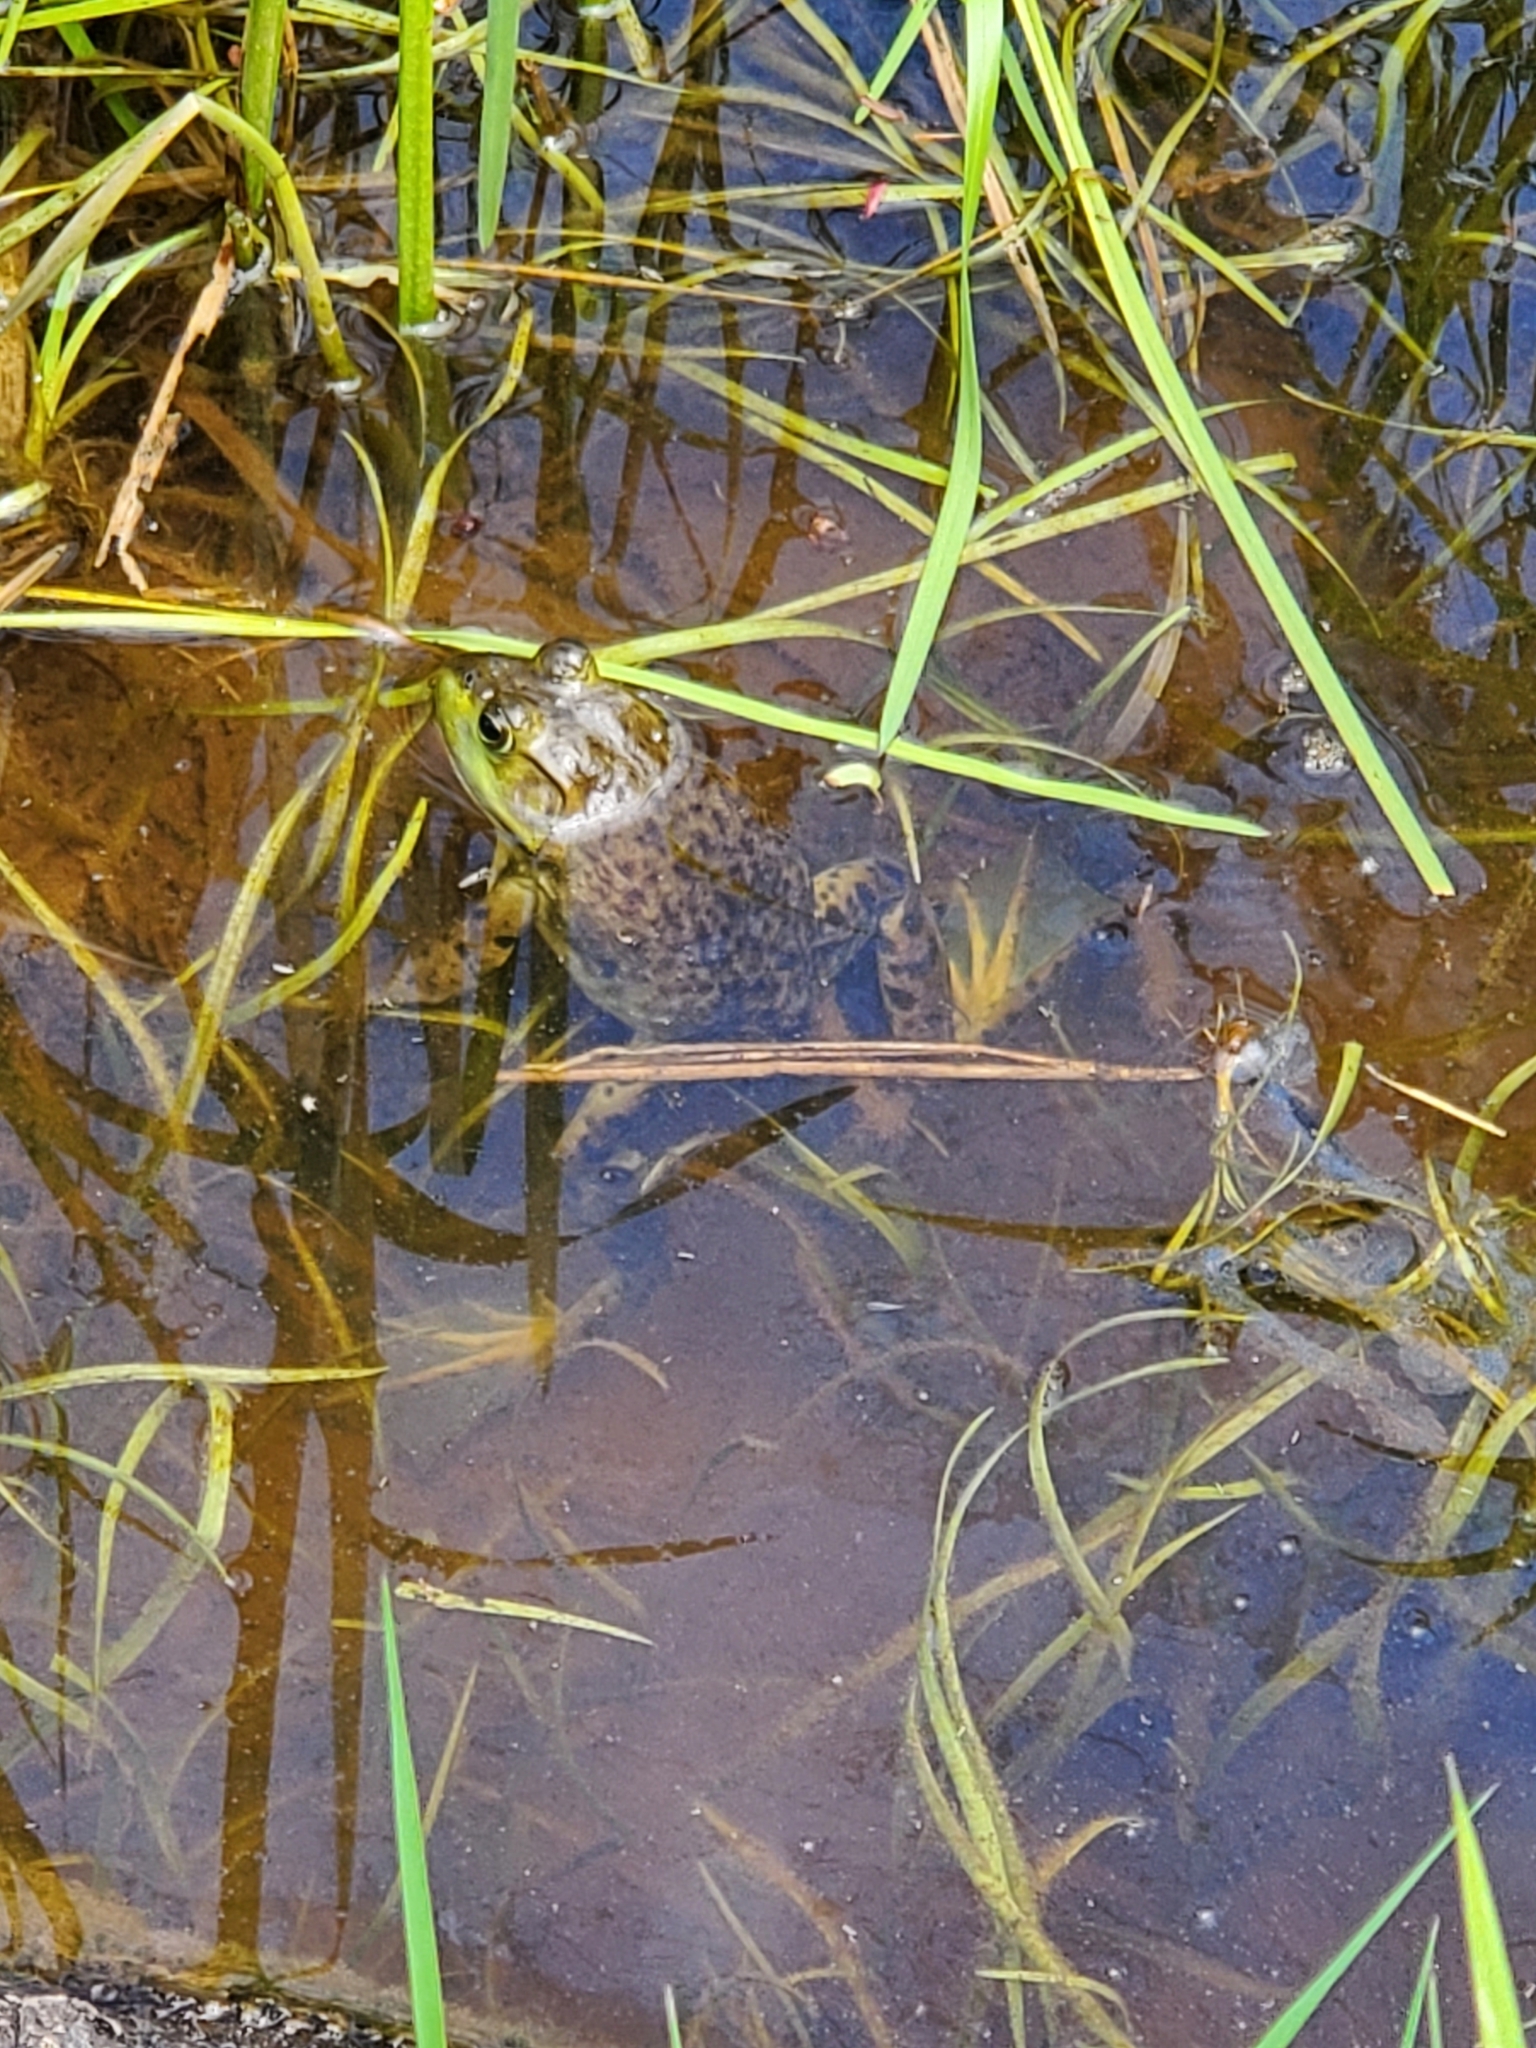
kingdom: Animalia
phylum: Chordata
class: Amphibia
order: Anura
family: Ranidae
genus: Lithobates
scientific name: Lithobates catesbeianus
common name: American bullfrog
